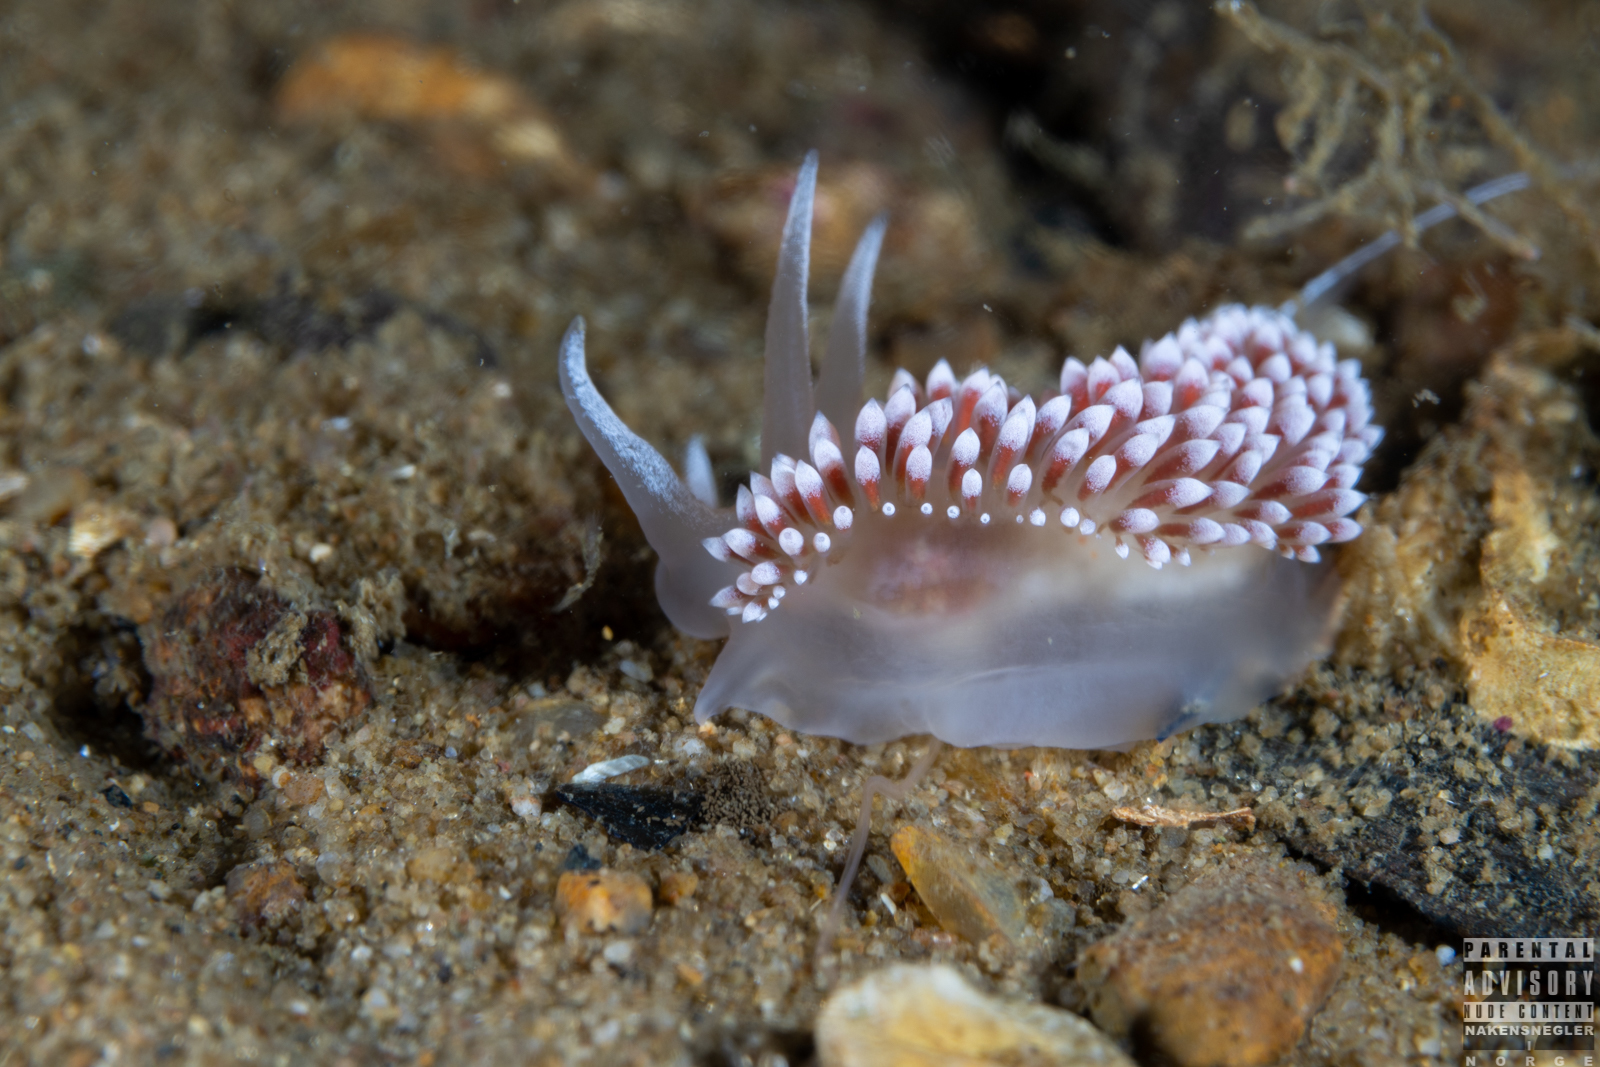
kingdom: Animalia
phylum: Mollusca
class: Gastropoda
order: Nudibranchia
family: Coryphellidae
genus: Coryphella
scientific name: Coryphella verrucosa
